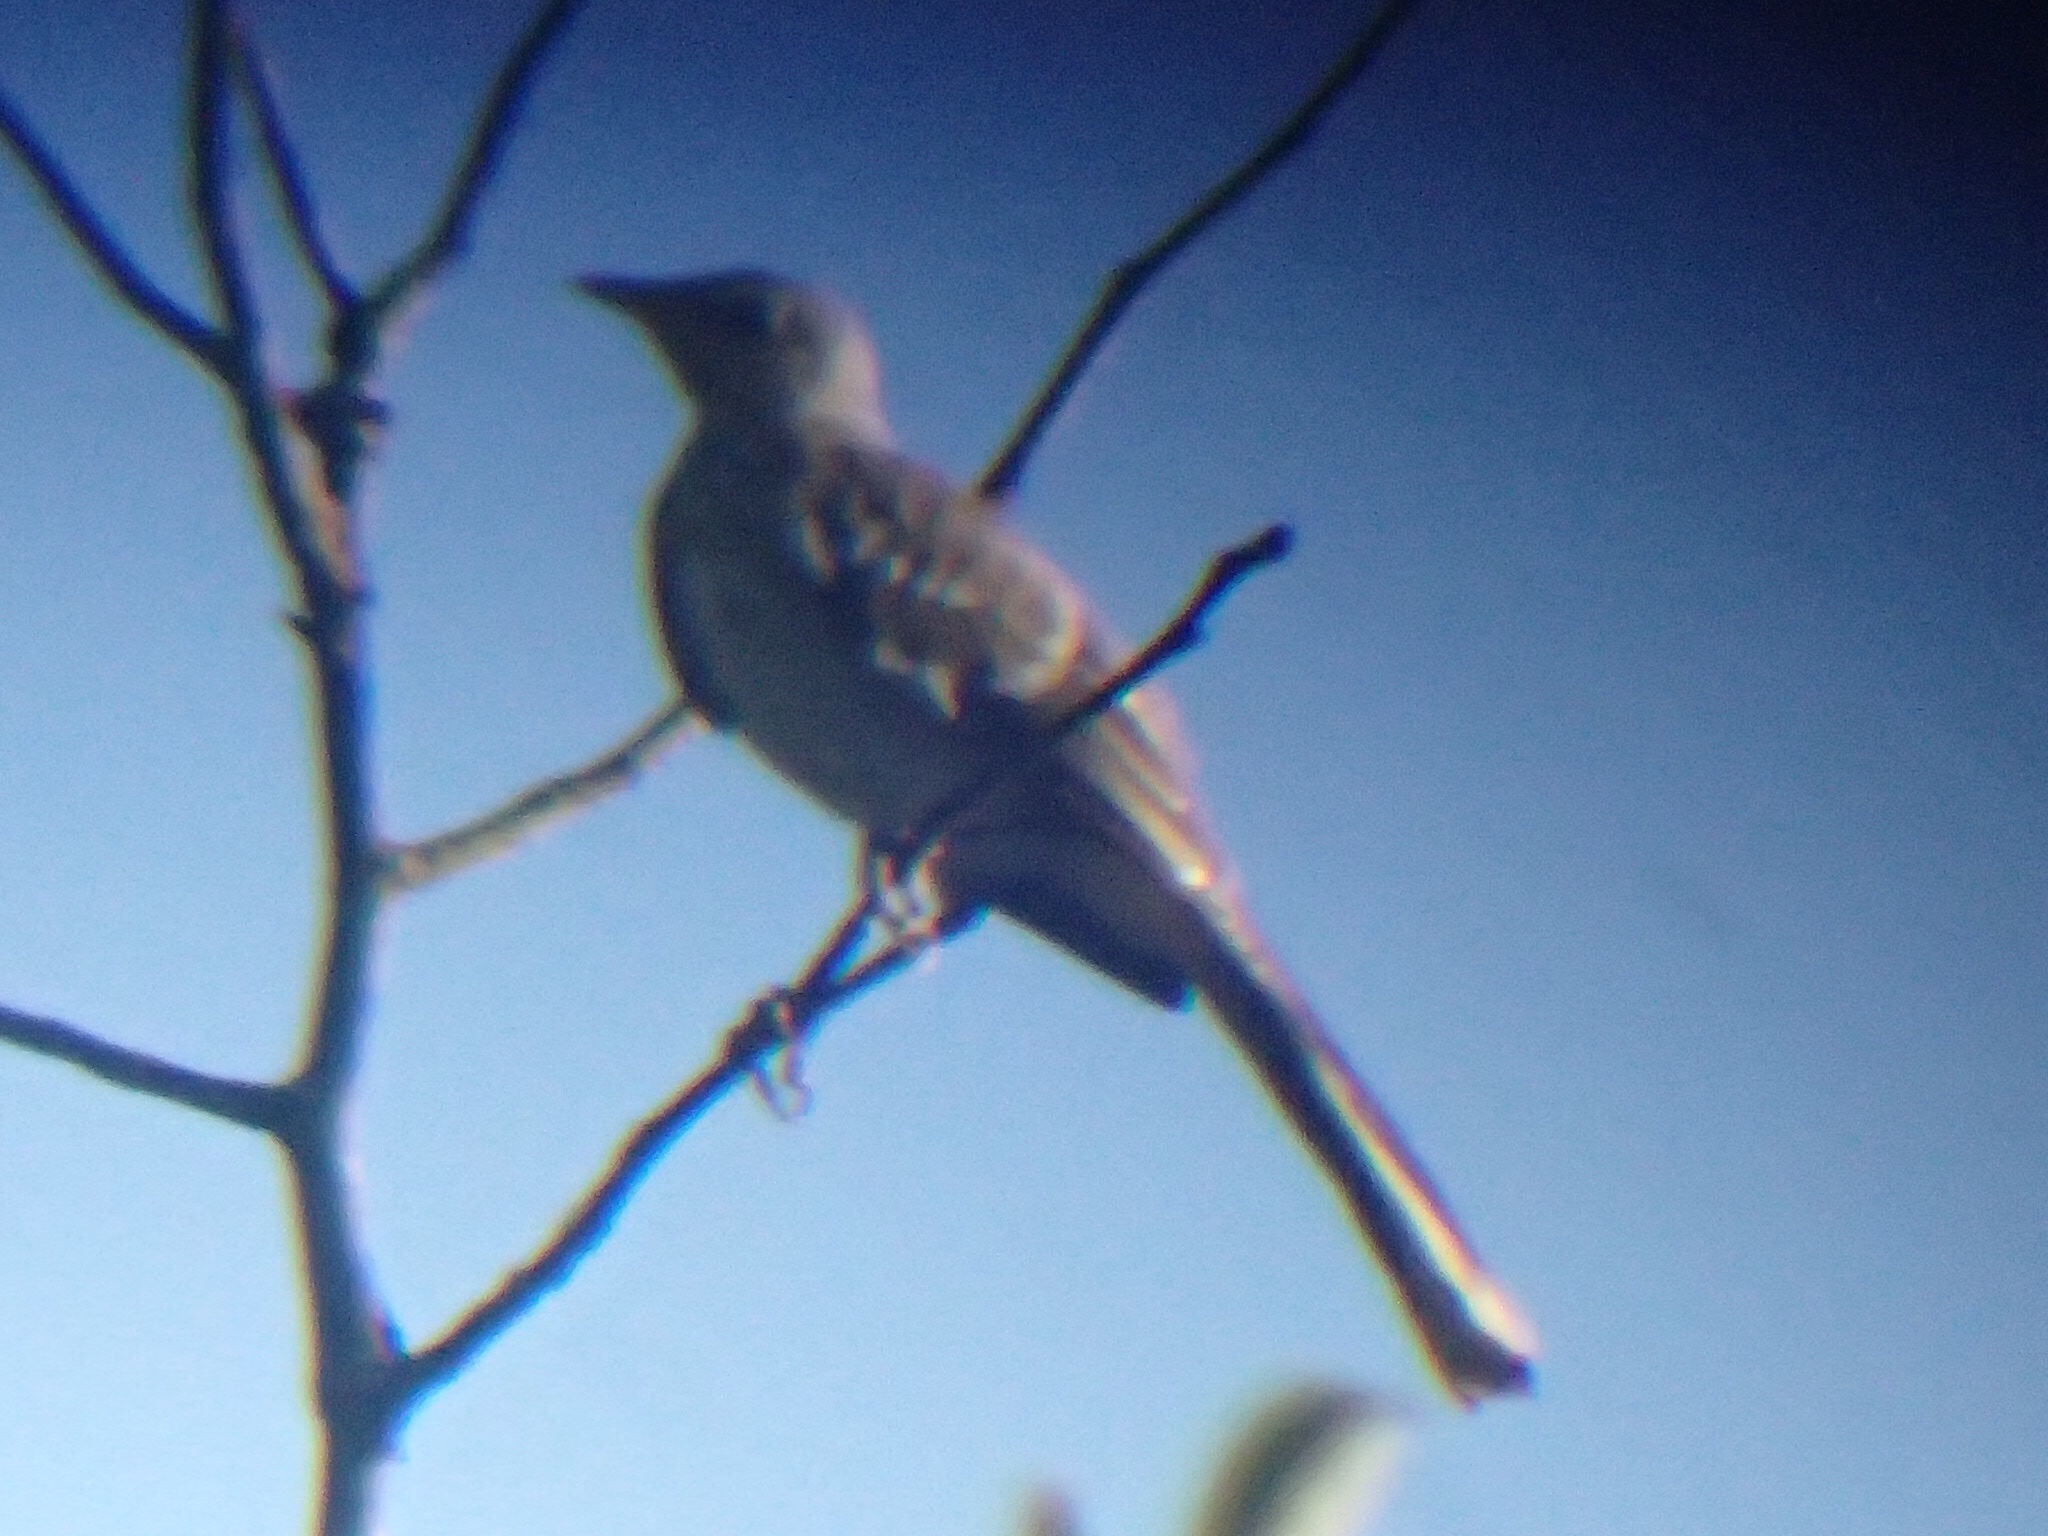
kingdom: Animalia
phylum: Chordata
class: Aves
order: Passeriformes
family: Mimidae
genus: Mimus
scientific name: Mimus polyglottos
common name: Northern mockingbird
